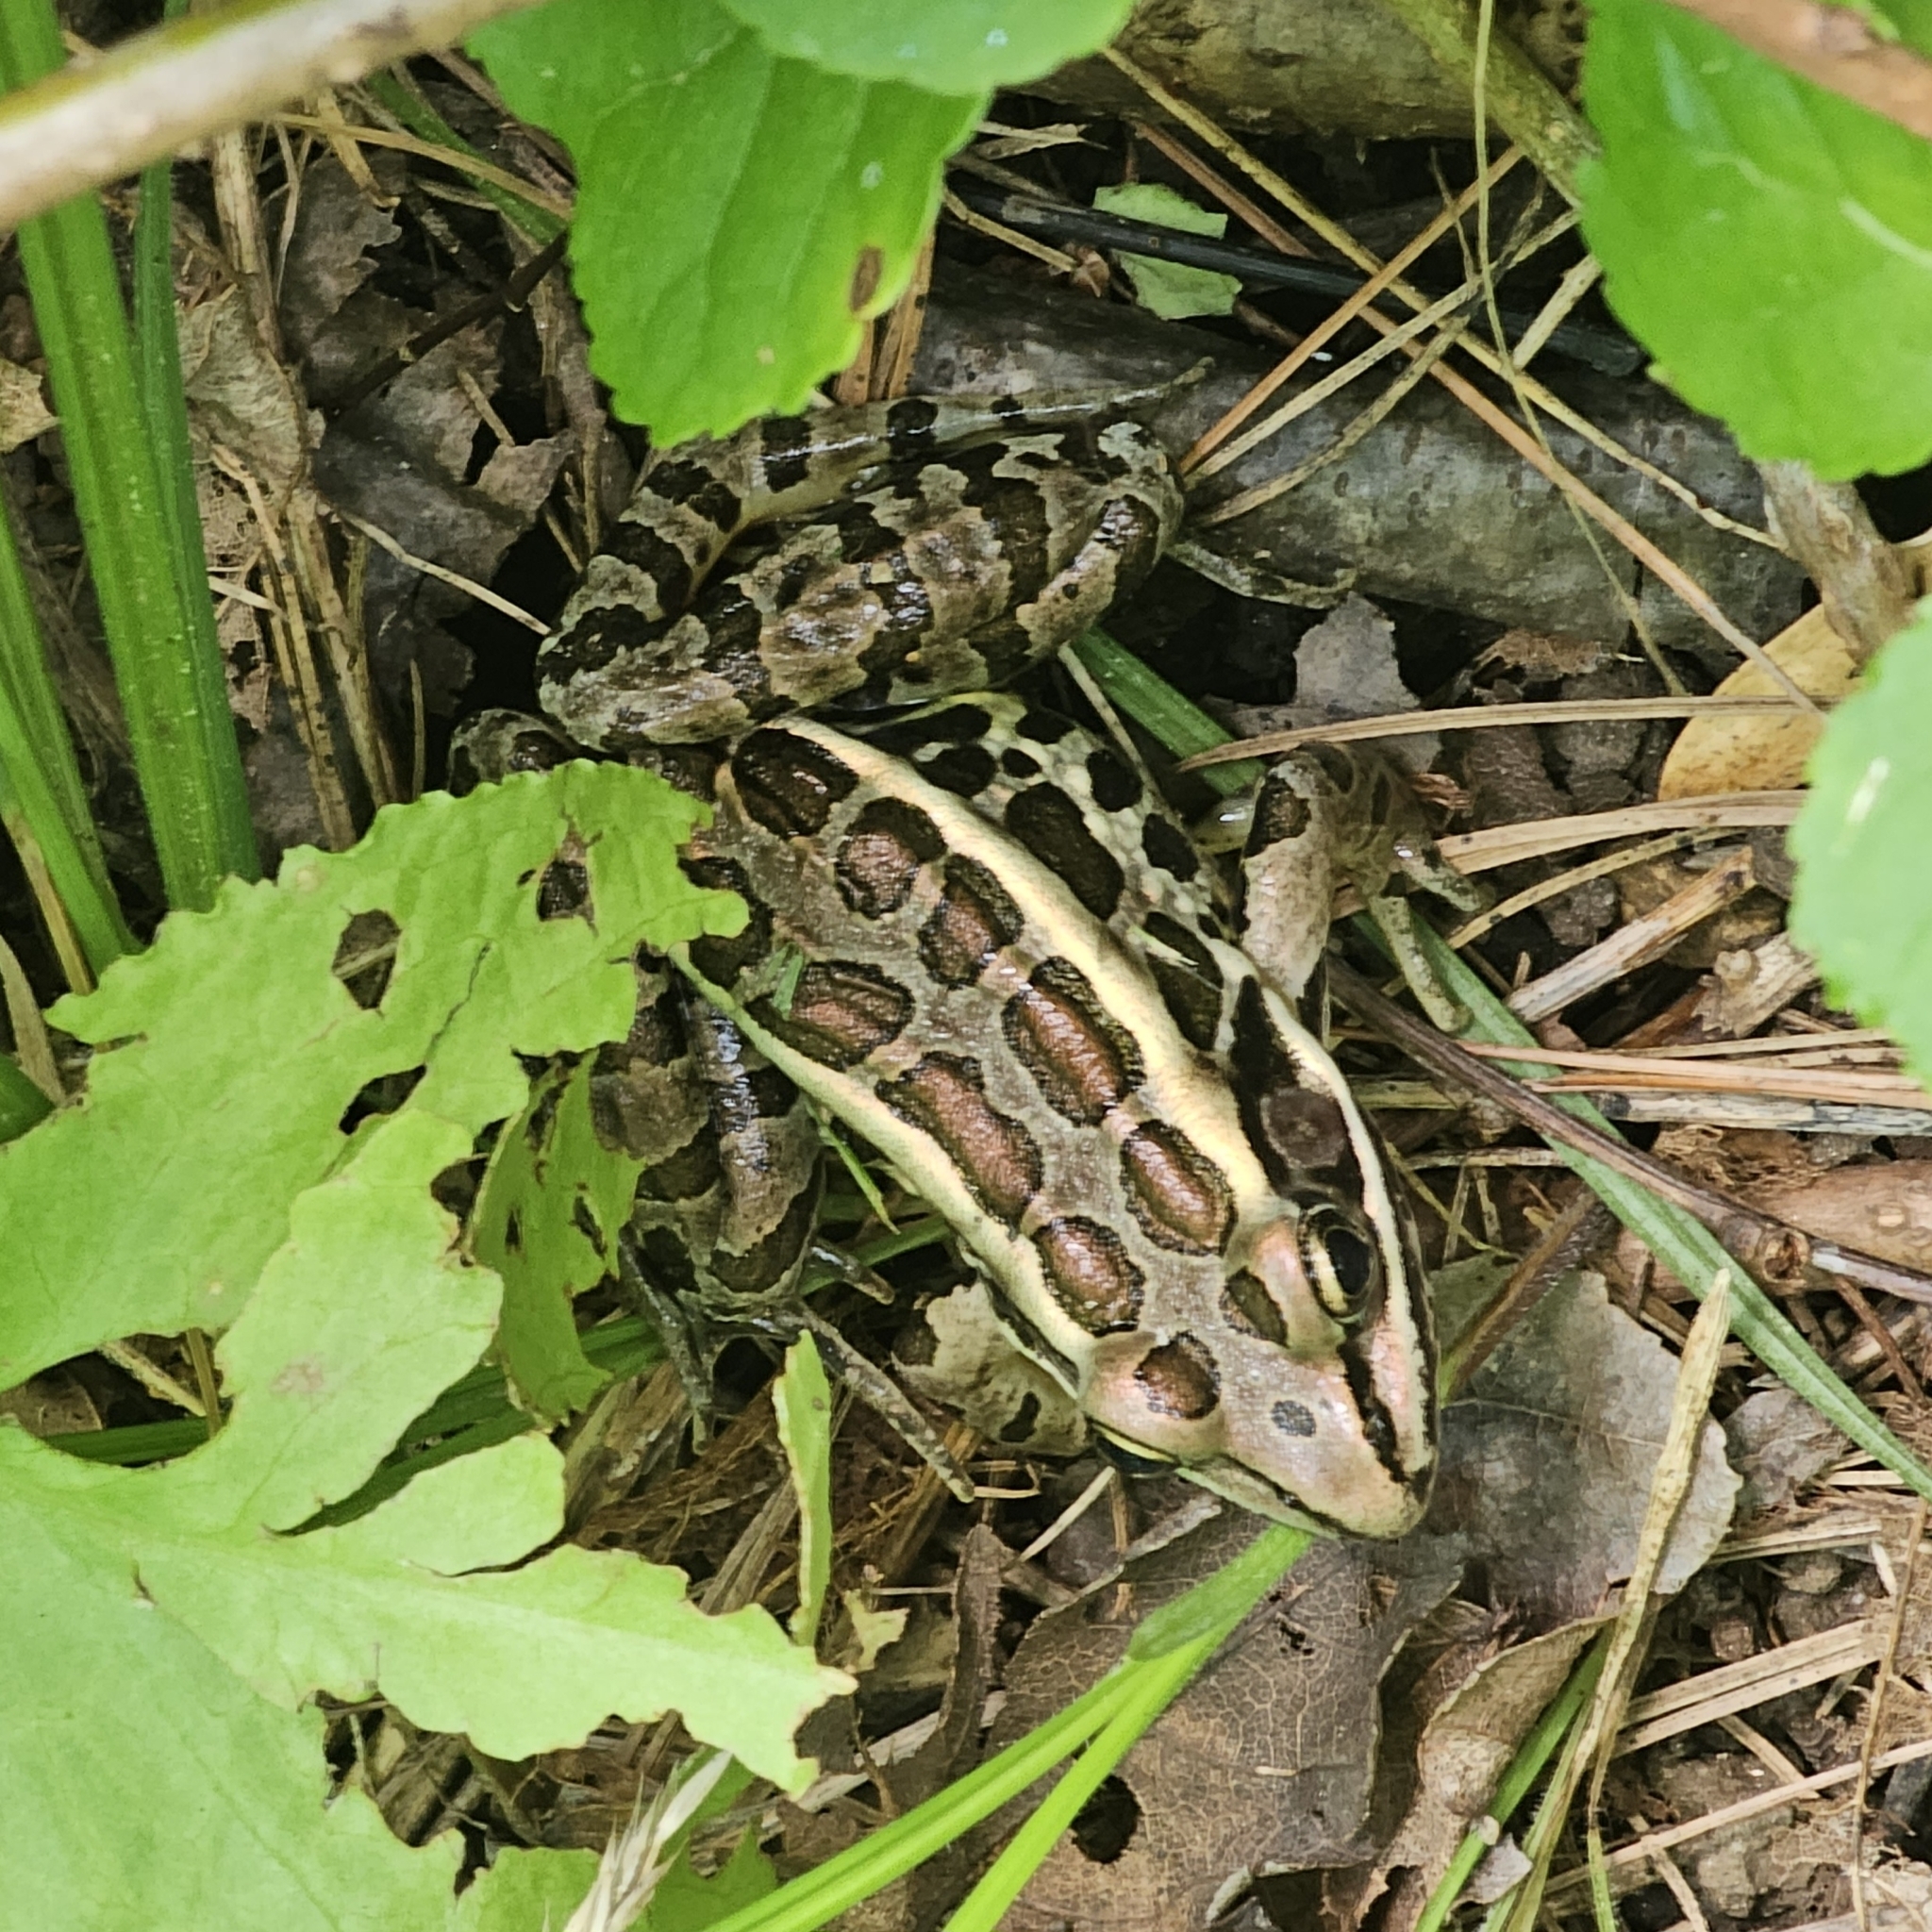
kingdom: Animalia
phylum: Chordata
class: Amphibia
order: Anura
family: Ranidae
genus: Lithobates
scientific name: Lithobates palustris
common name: Pickerel frog
